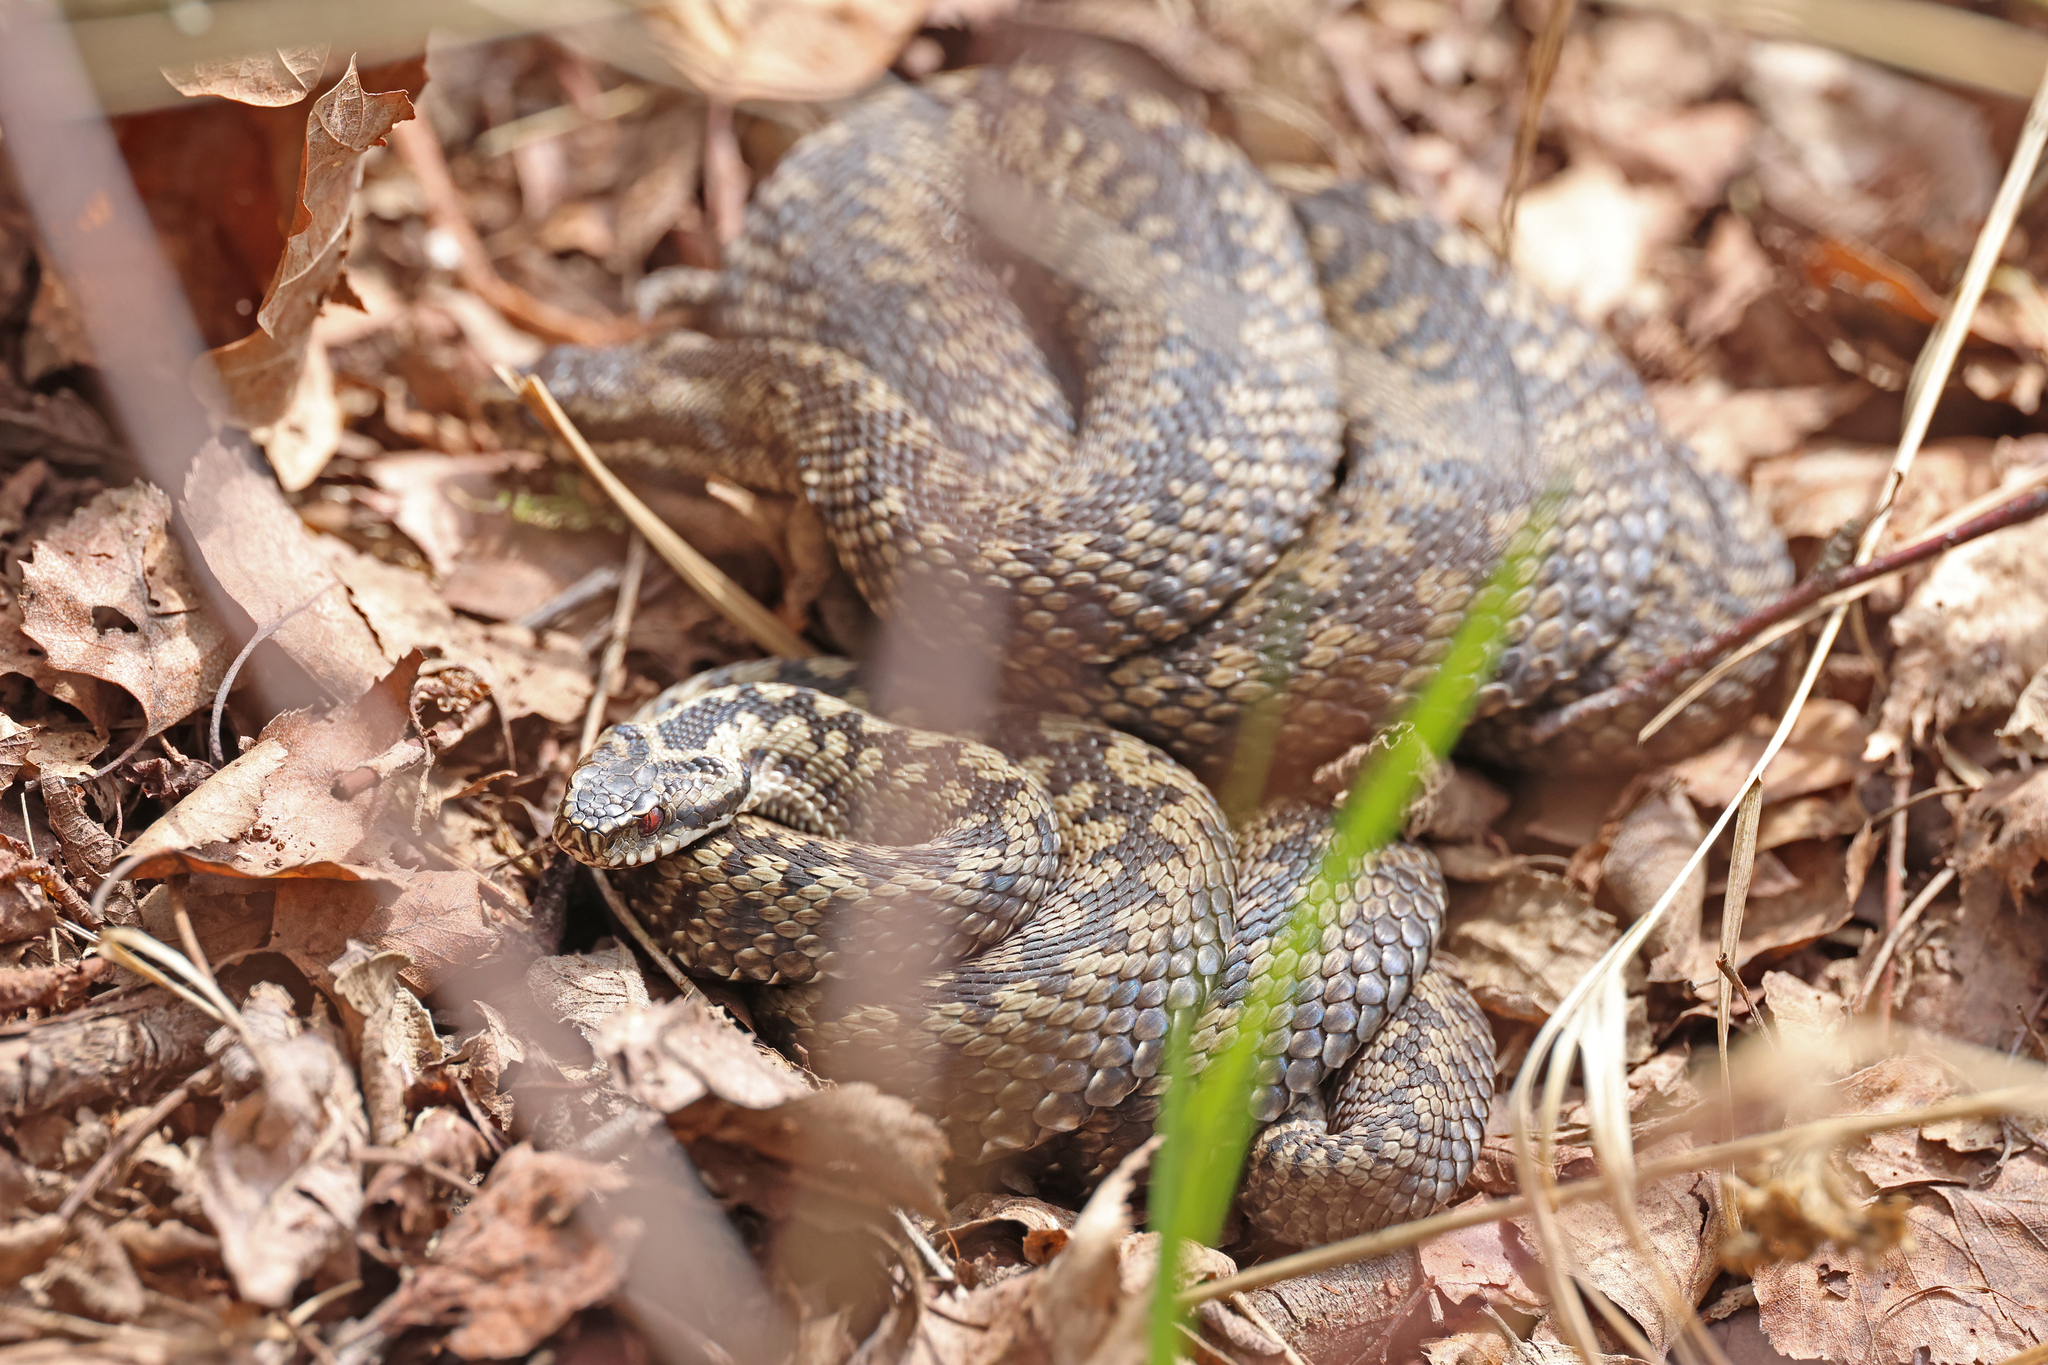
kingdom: Animalia
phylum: Chordata
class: Squamata
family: Viperidae
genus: Vipera
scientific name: Vipera berus
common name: Adder
